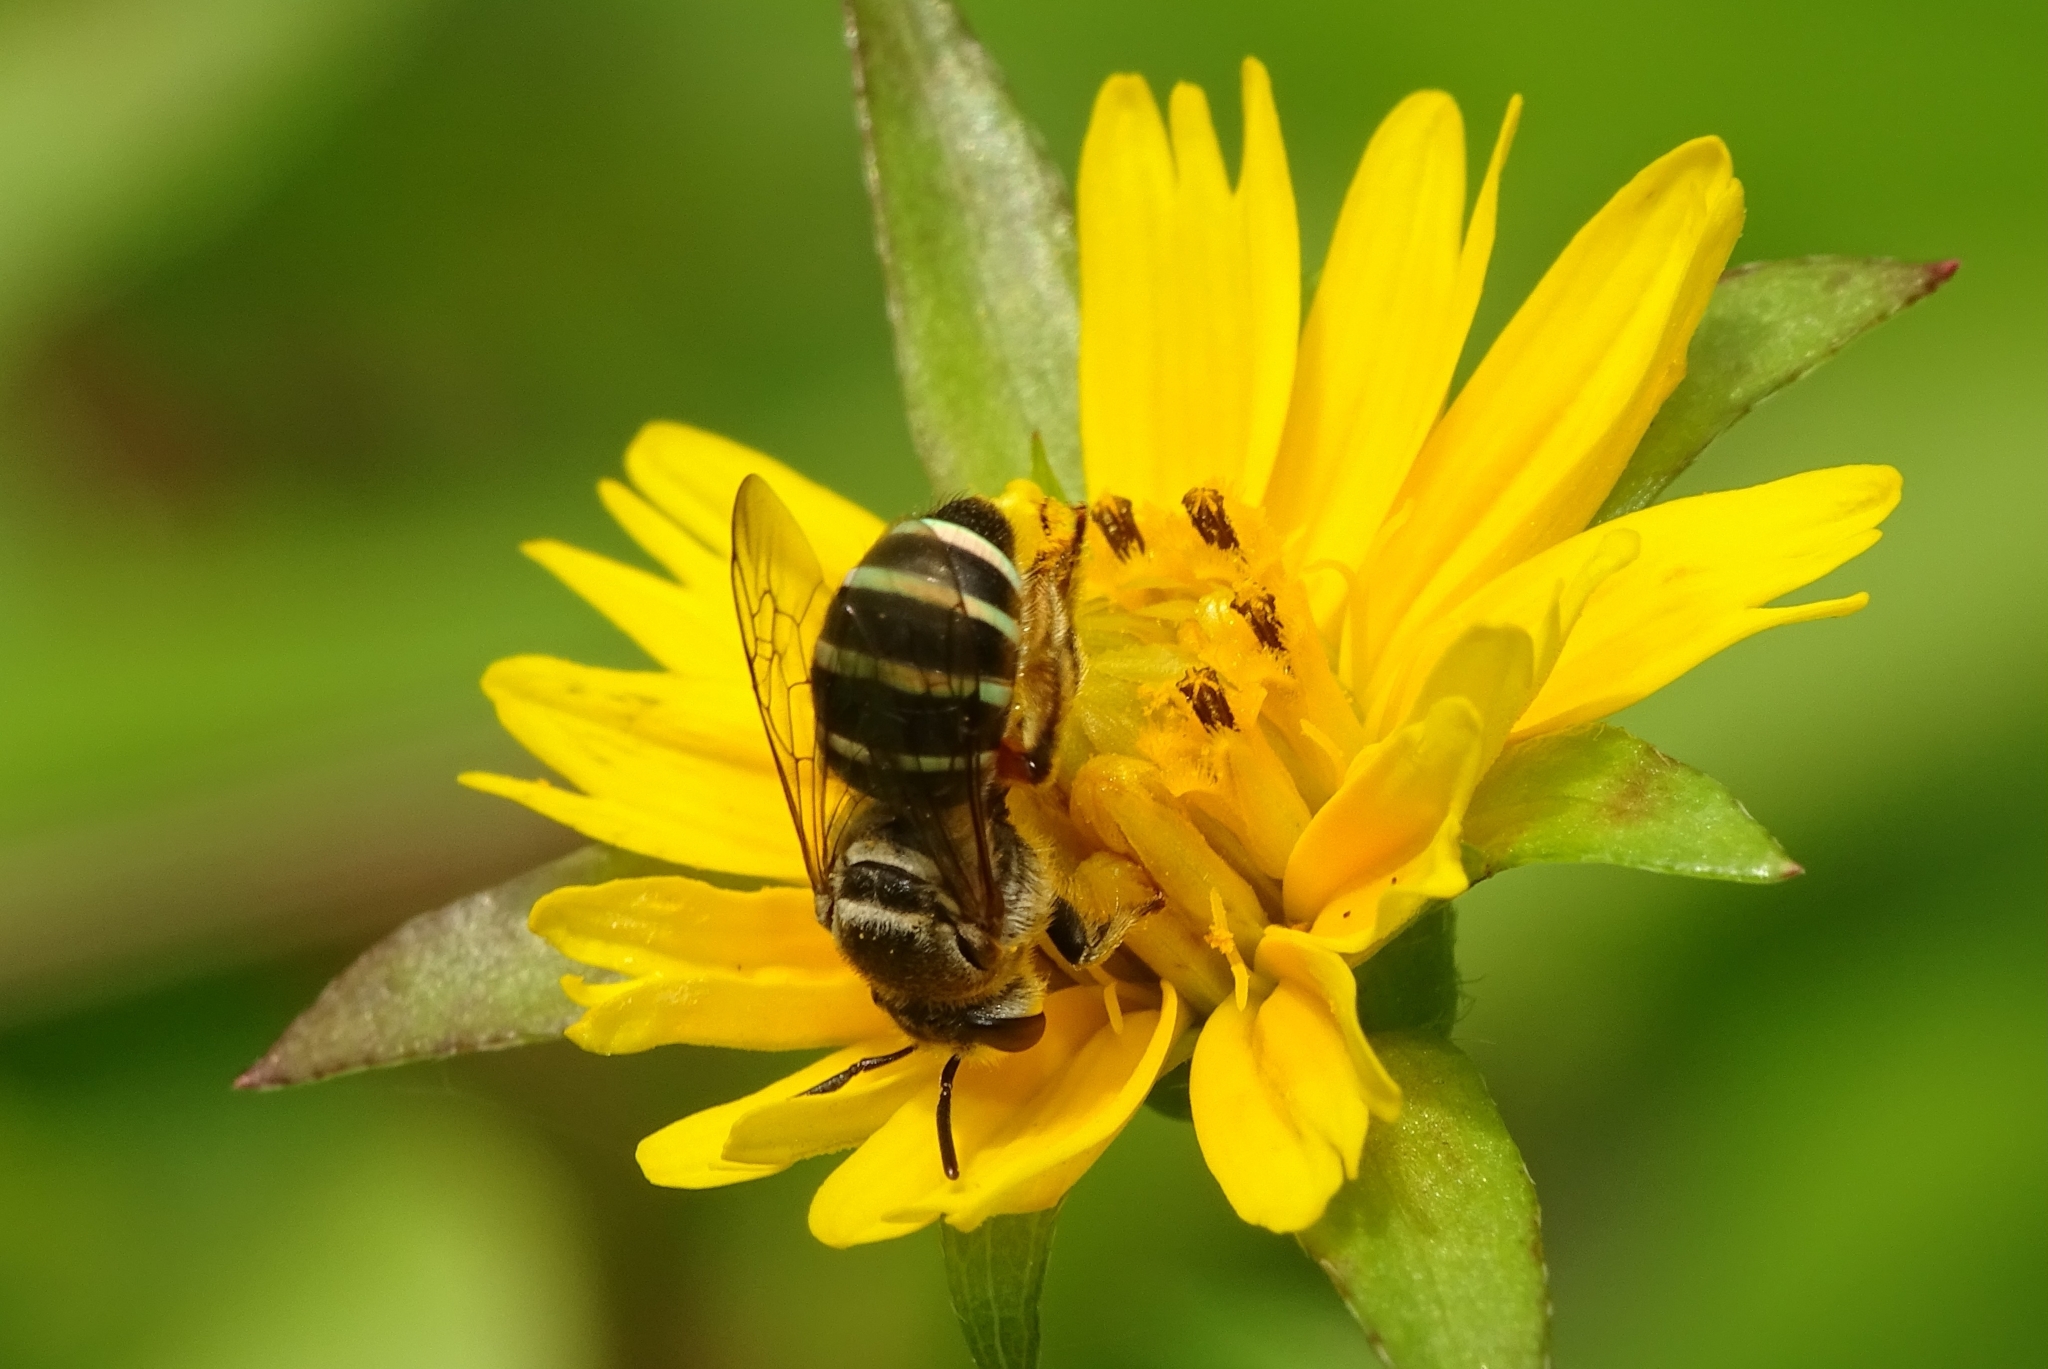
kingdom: Animalia
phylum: Arthropoda
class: Insecta
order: Hymenoptera
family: Halictidae
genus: Nomia
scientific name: Nomia westwoodi
